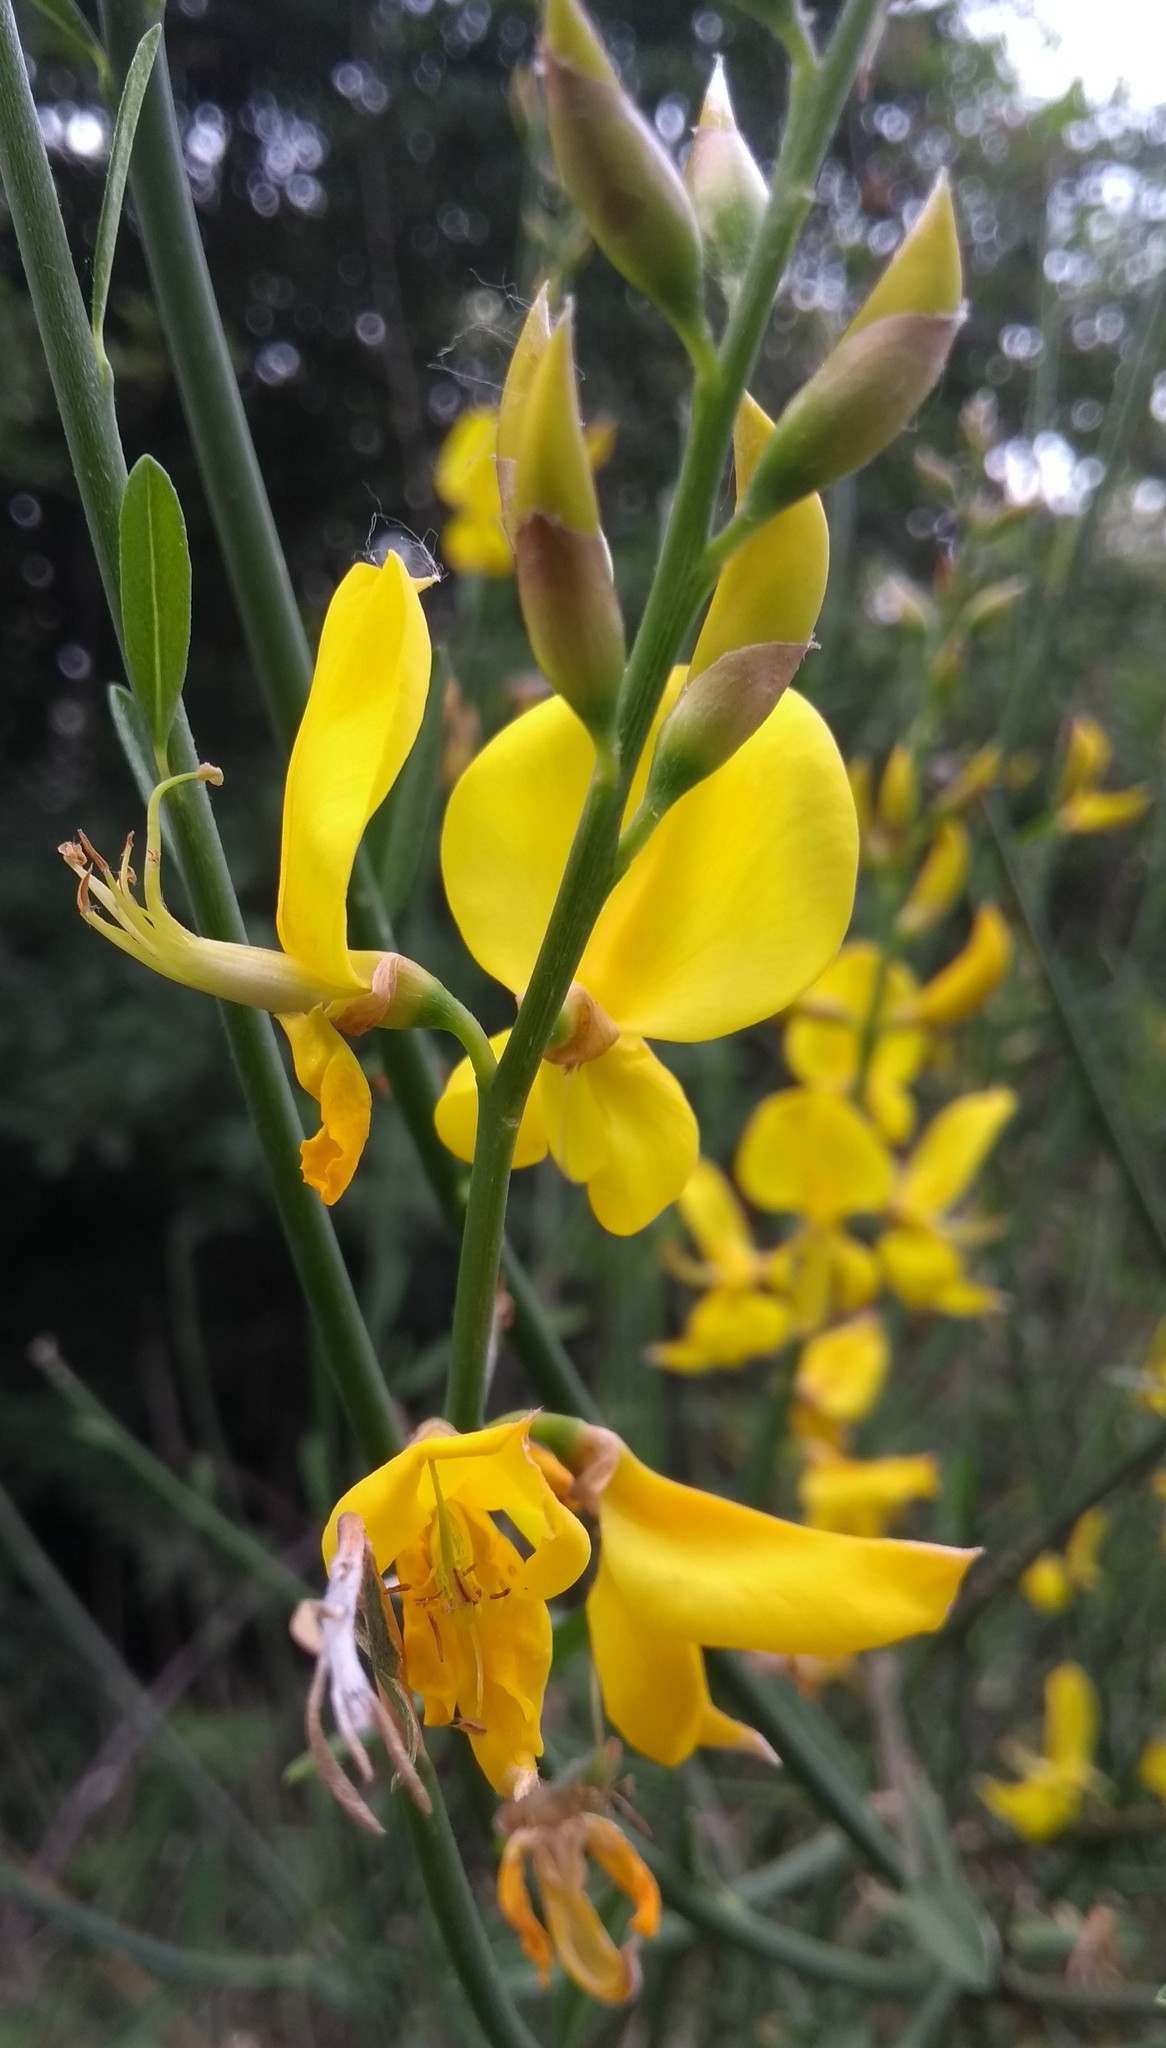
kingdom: Plantae
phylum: Tracheophyta
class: Magnoliopsida
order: Fabales
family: Fabaceae
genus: Spartium
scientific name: Spartium junceum
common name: Spanish broom
